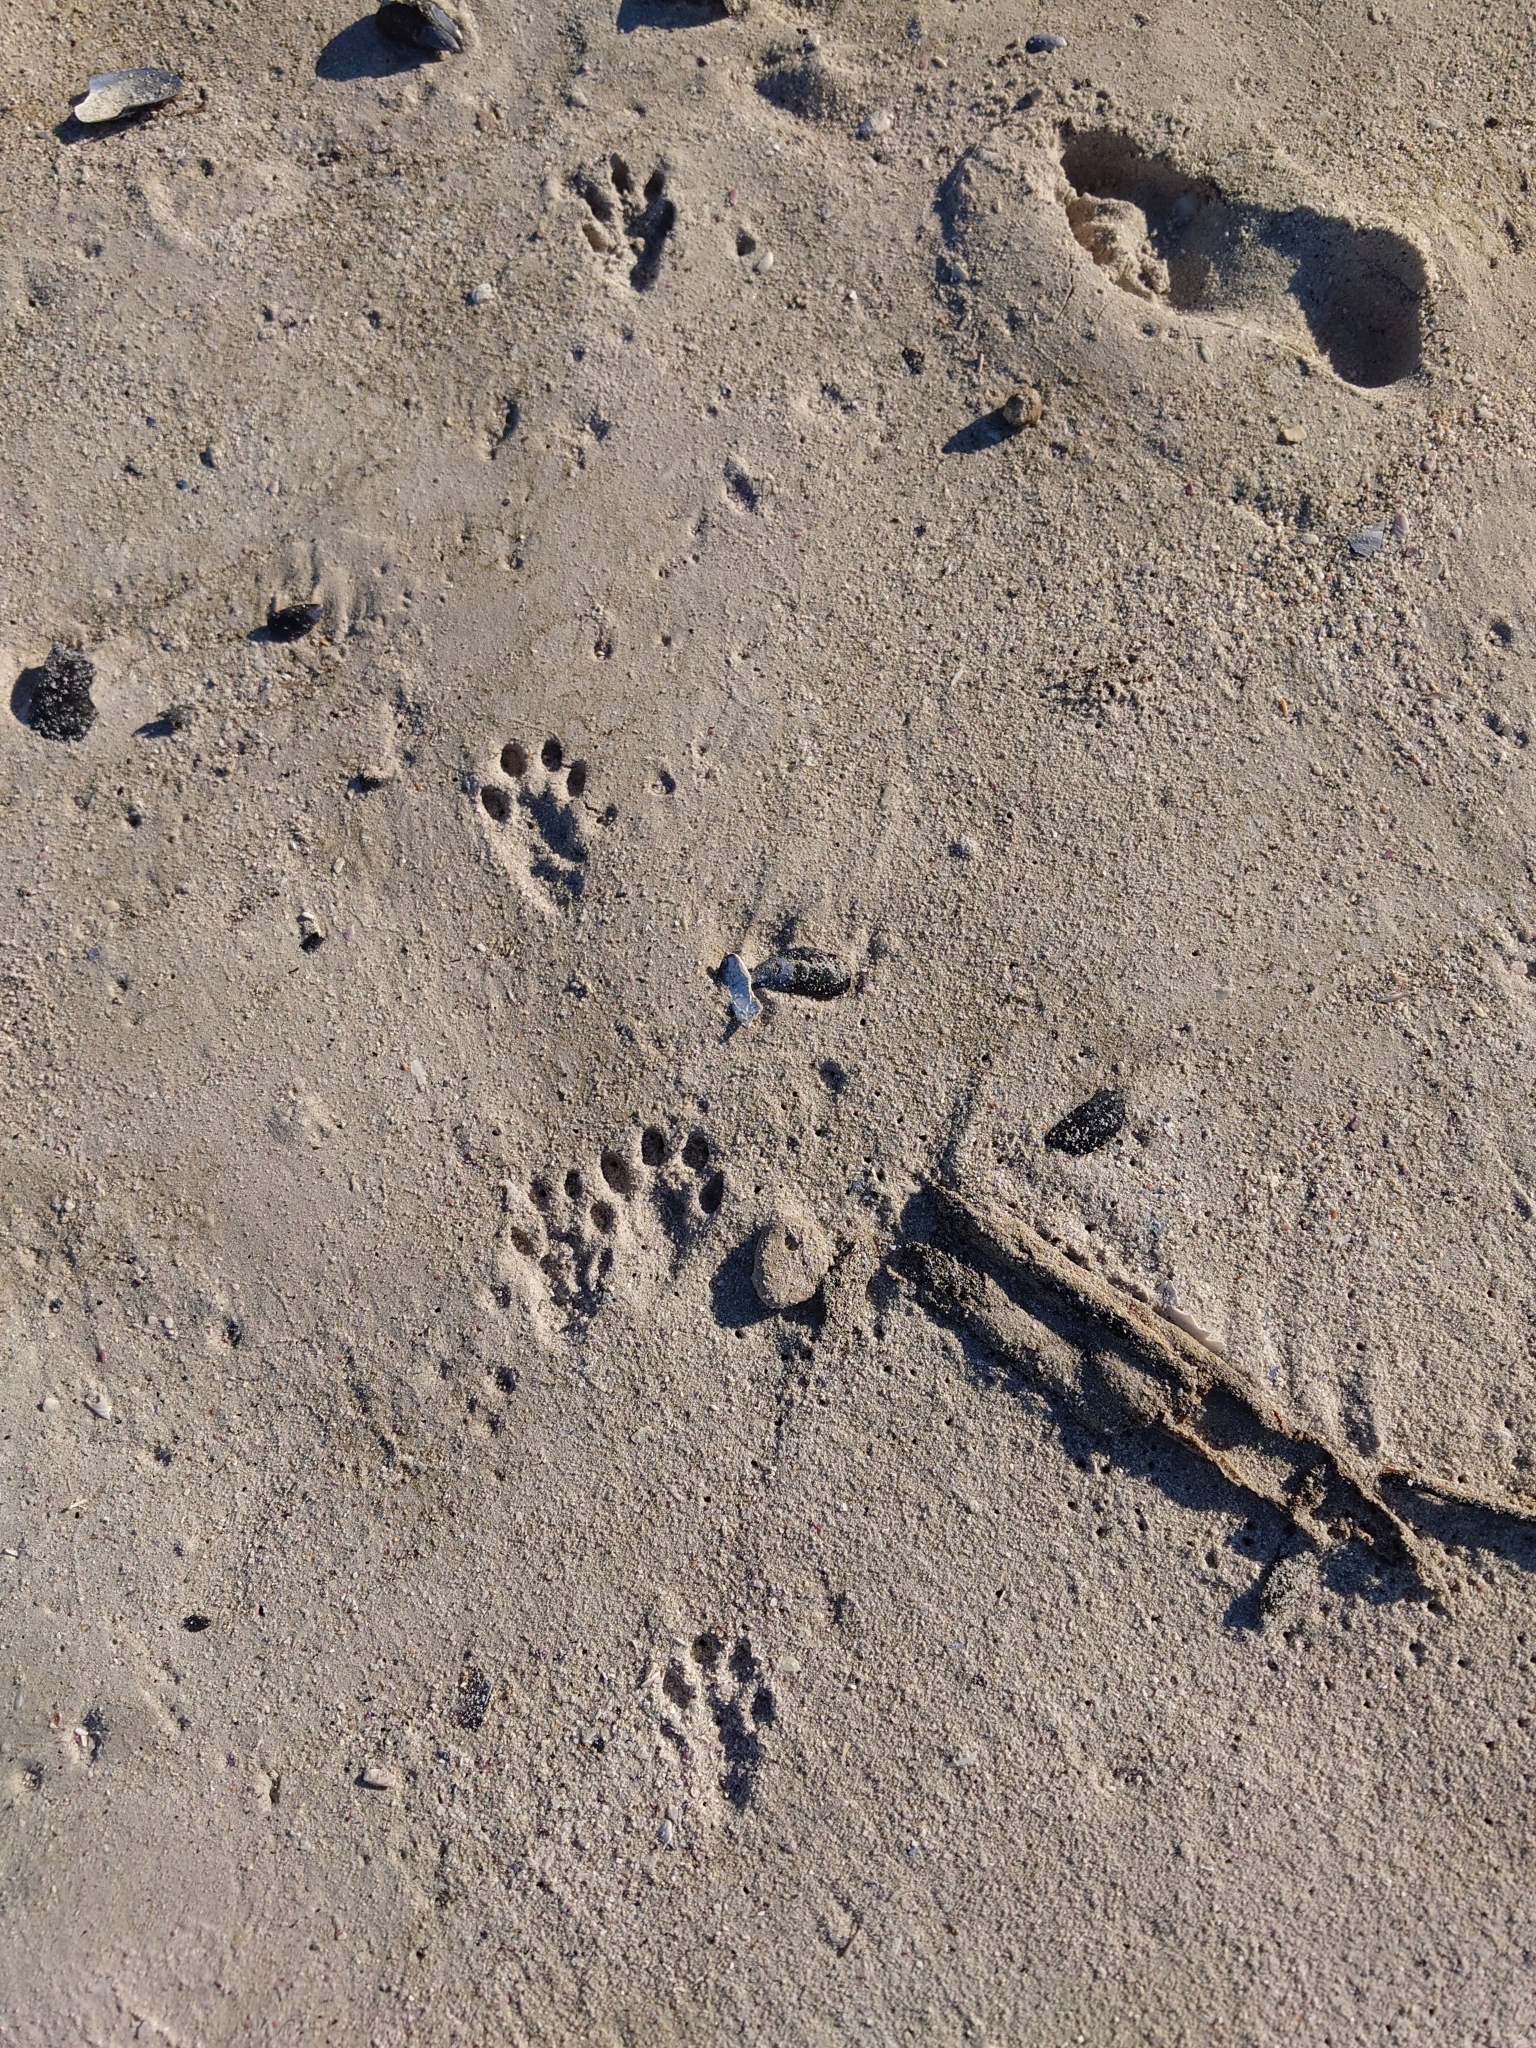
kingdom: Animalia
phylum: Chordata
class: Mammalia
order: Carnivora
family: Mustelidae
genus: Aonyx
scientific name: Aonyx capensis
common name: African clawless otter
